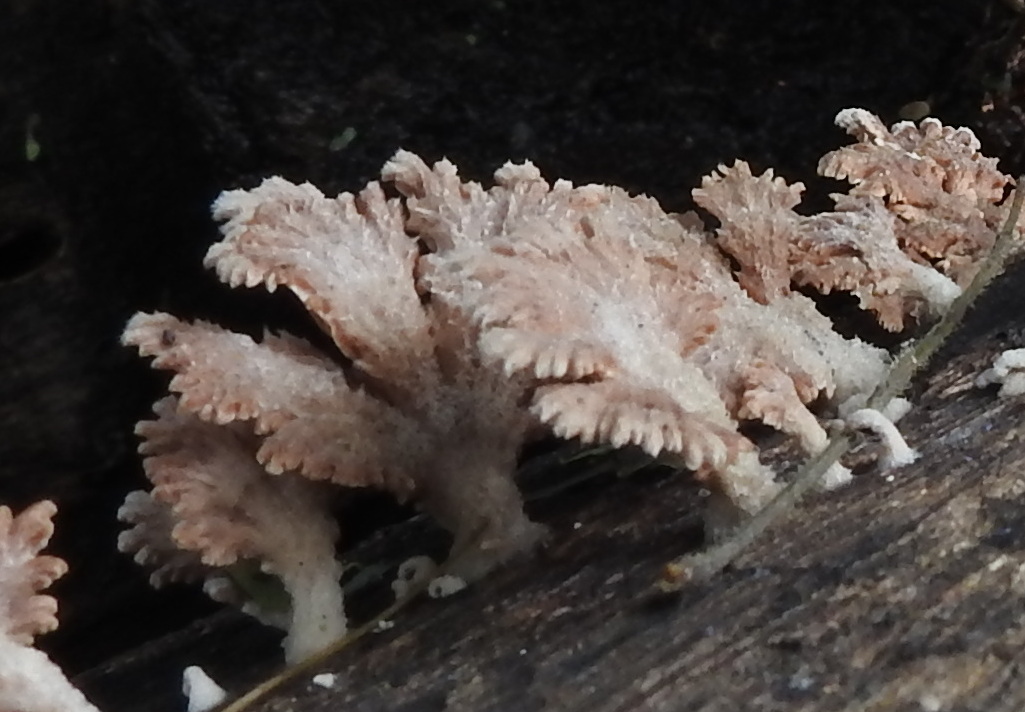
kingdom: Fungi
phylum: Basidiomycota
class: Agaricomycetes
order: Agaricales
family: Schizophyllaceae
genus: Schizophyllum
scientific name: Schizophyllum commune
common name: Common porecrust
